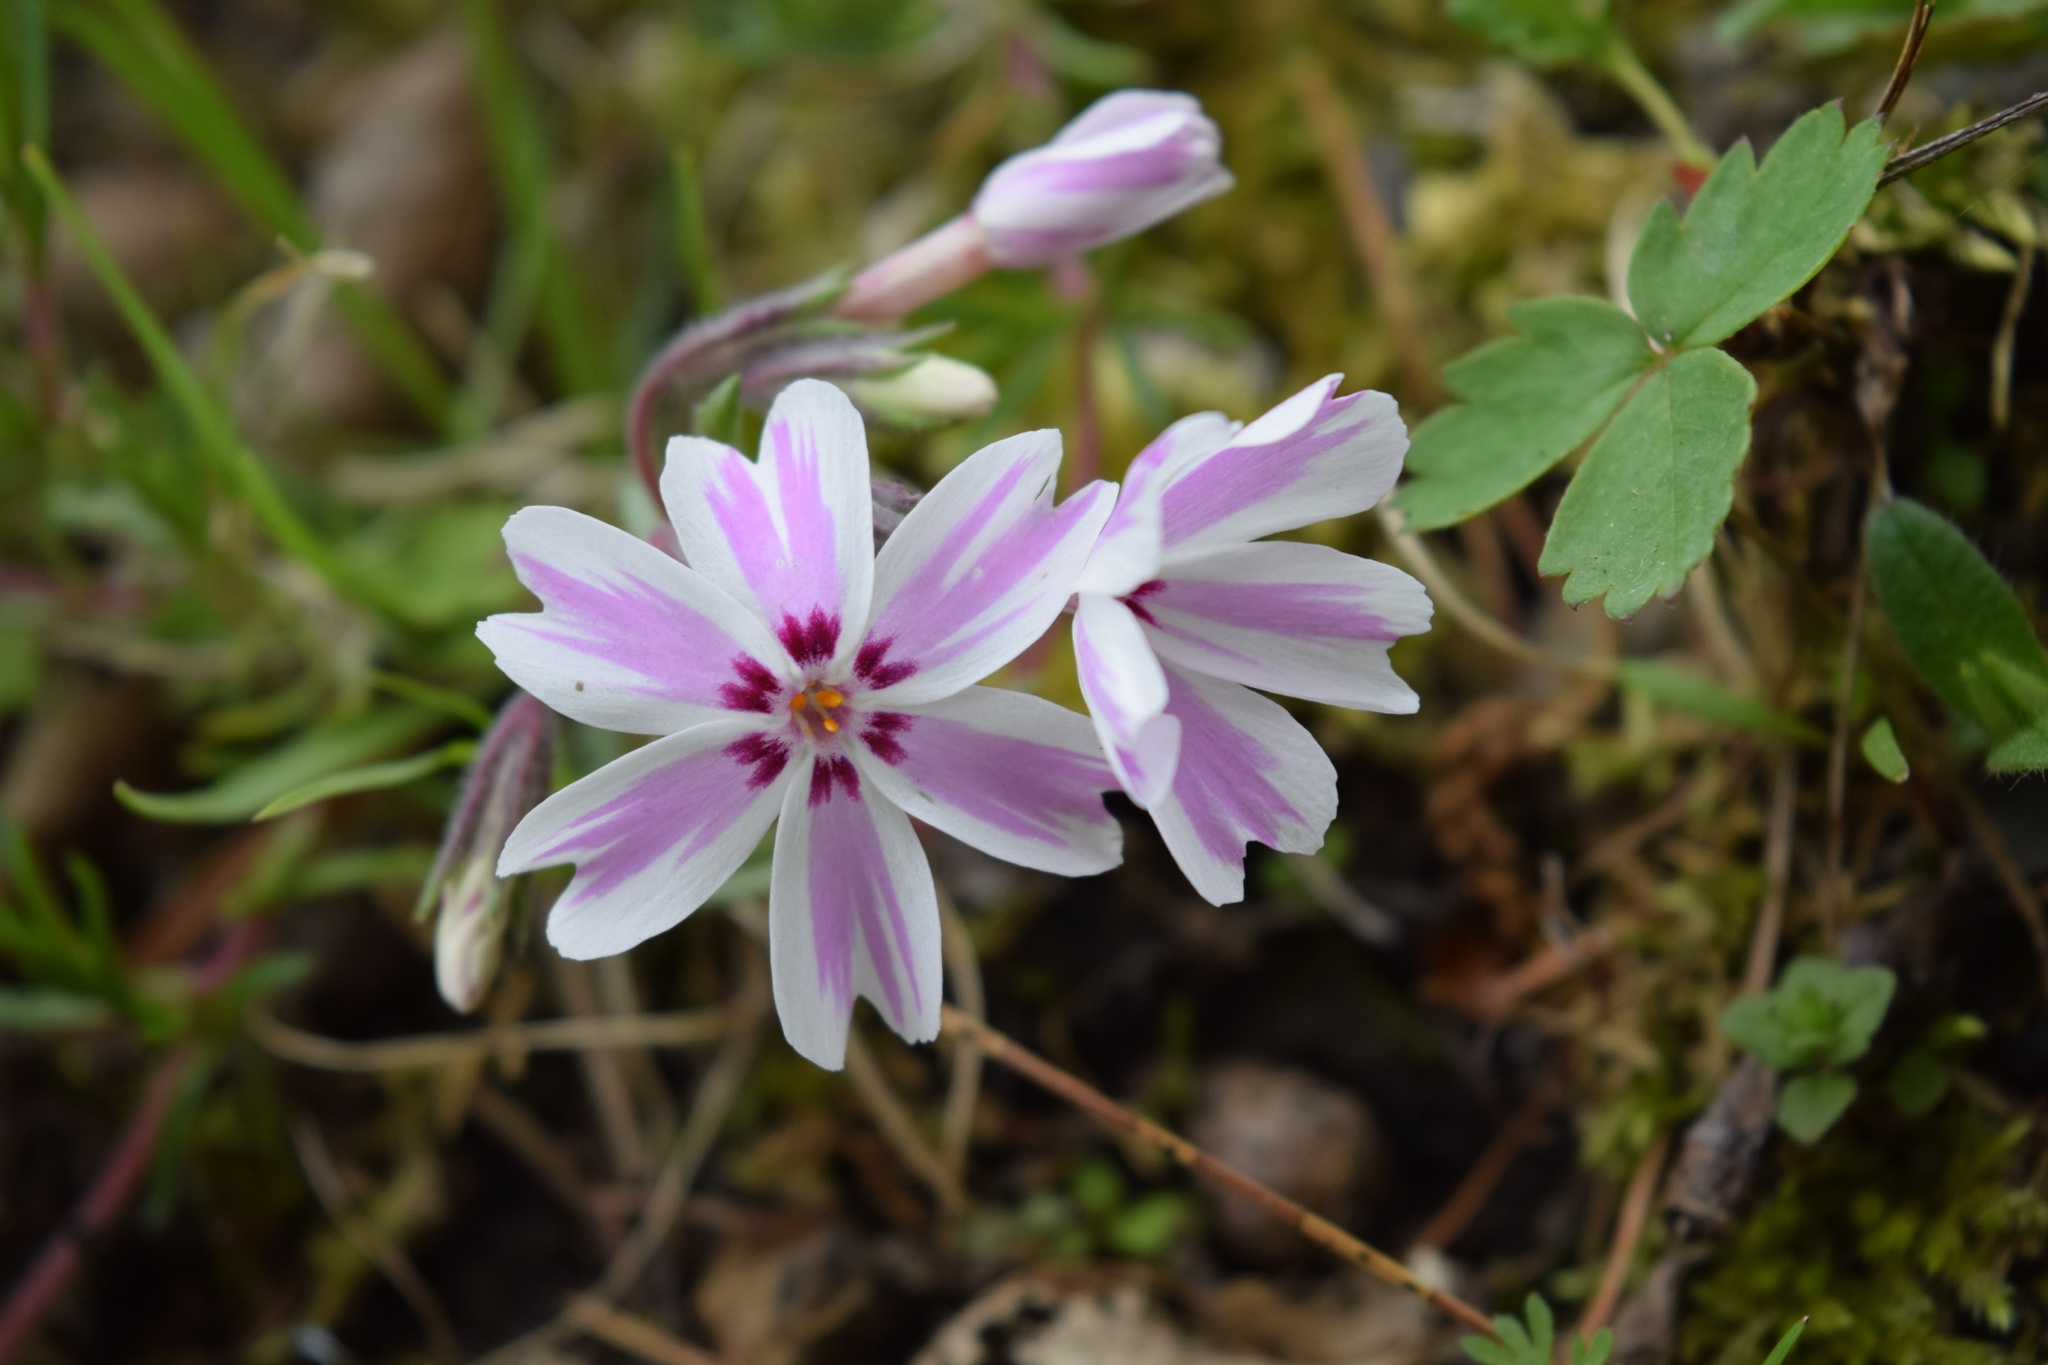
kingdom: Plantae
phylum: Tracheophyta
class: Magnoliopsida
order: Ericales
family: Polemoniaceae
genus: Phlox
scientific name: Phlox subulata
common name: Moss phlox
